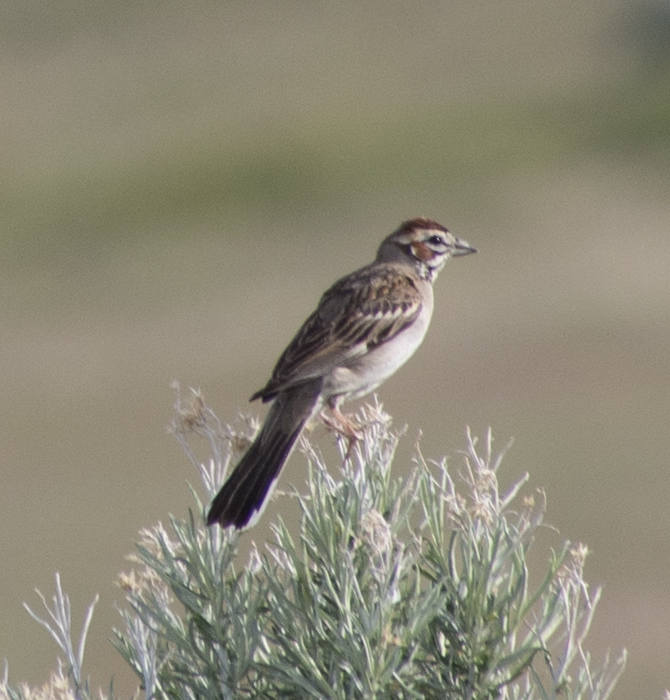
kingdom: Animalia
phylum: Chordata
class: Aves
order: Passeriformes
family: Passerellidae
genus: Chondestes
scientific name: Chondestes grammacus
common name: Lark sparrow
